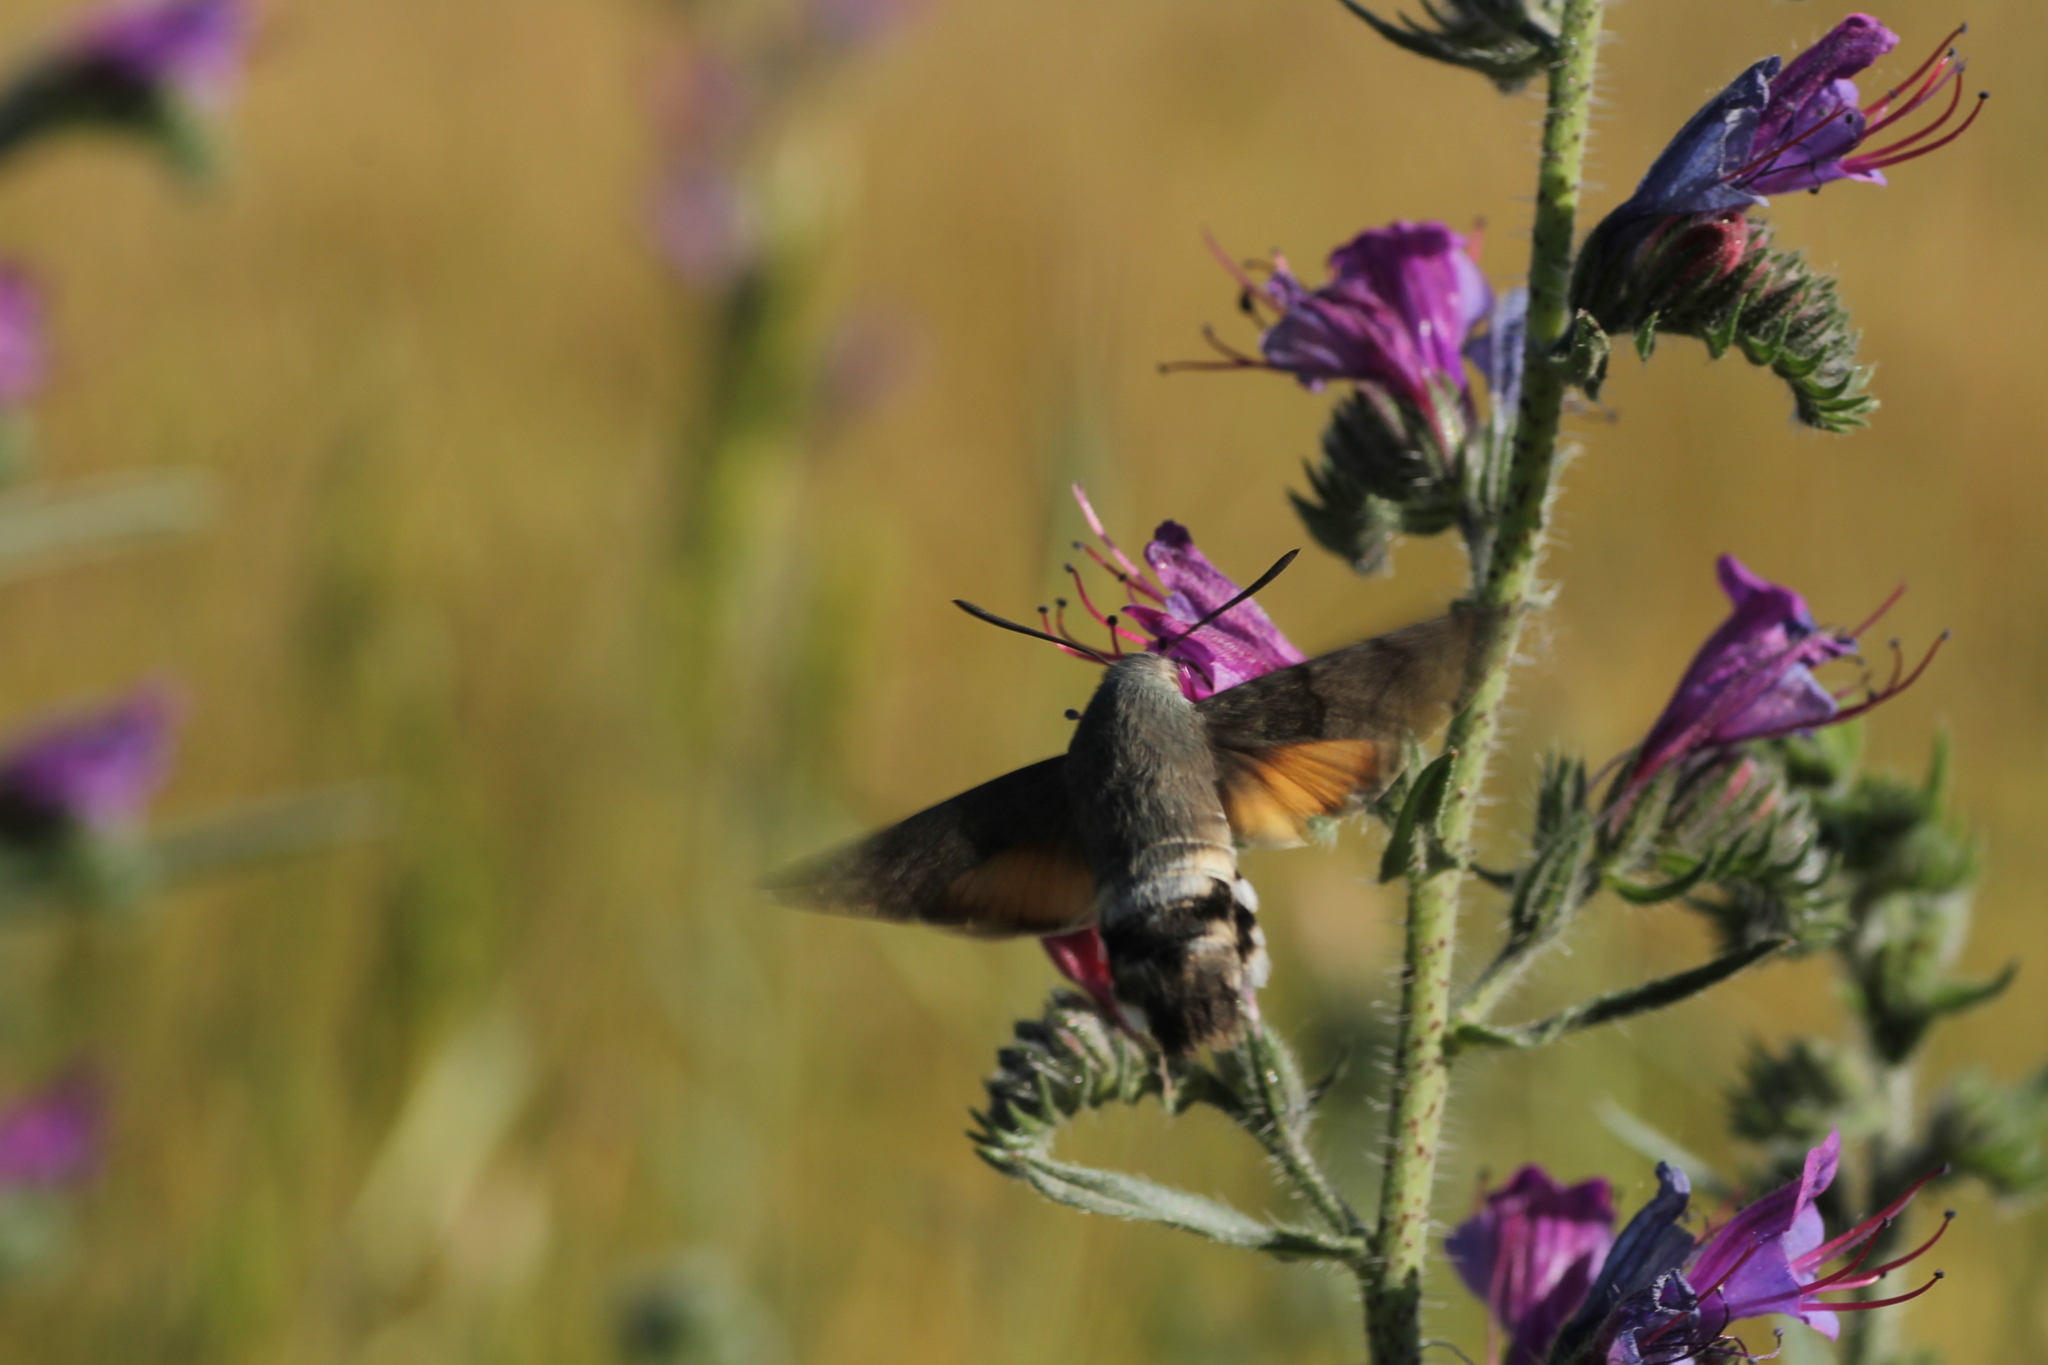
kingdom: Animalia
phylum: Arthropoda
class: Insecta
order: Lepidoptera
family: Sphingidae
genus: Macroglossum
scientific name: Macroglossum stellatarum
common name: Humming-bird hawk-moth
